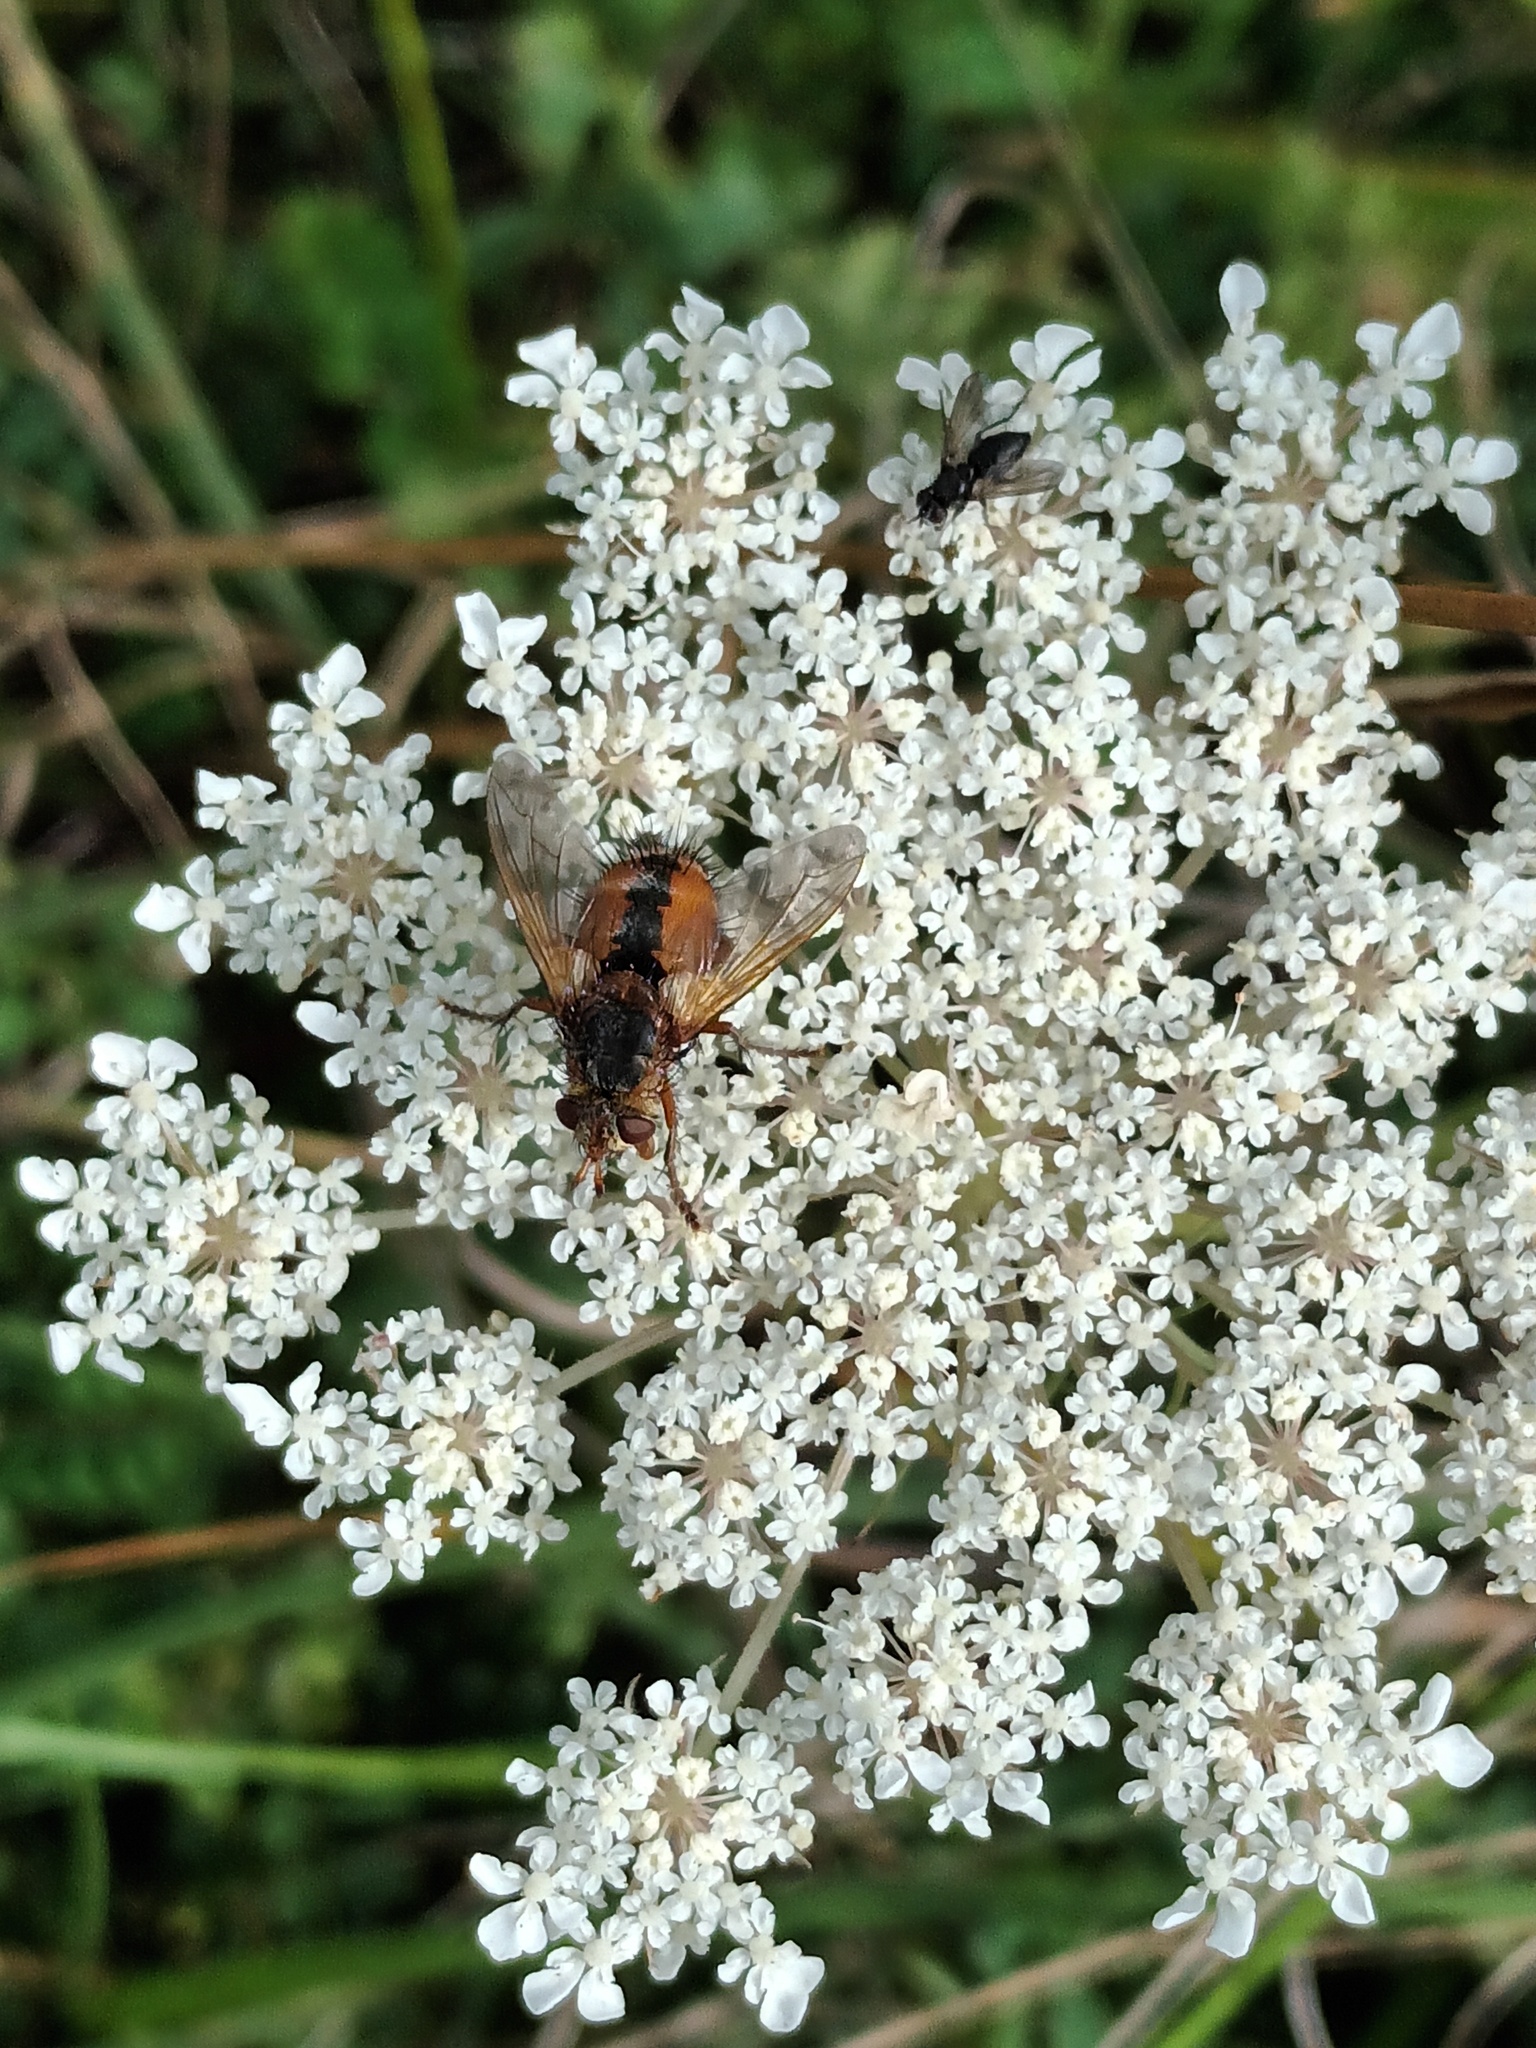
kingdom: Animalia
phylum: Arthropoda
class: Insecta
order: Diptera
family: Tachinidae
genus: Tachina
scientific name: Tachina fera
